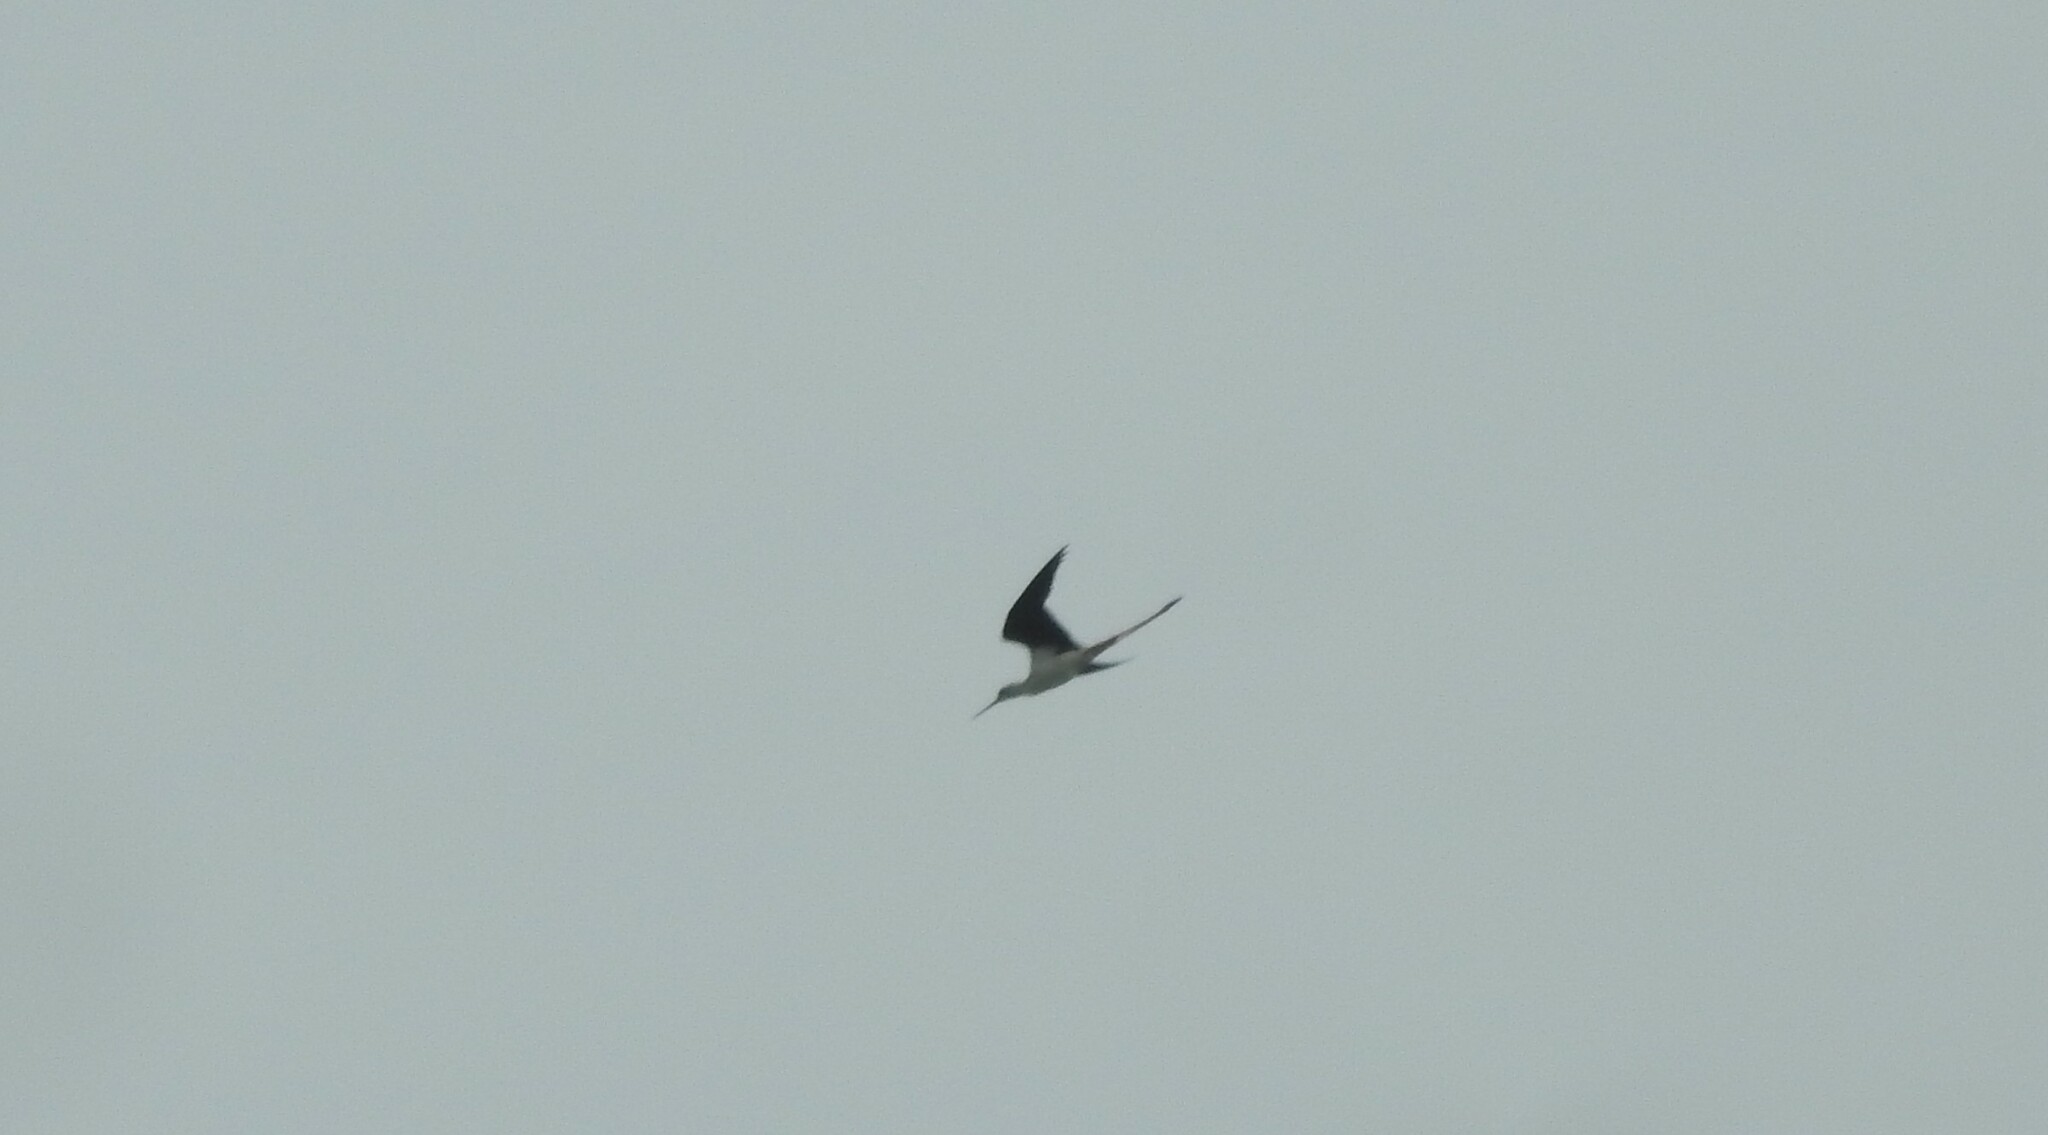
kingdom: Animalia
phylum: Chordata
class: Aves
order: Charadriiformes
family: Recurvirostridae
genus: Himantopus
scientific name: Himantopus himantopus
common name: Black-winged stilt
